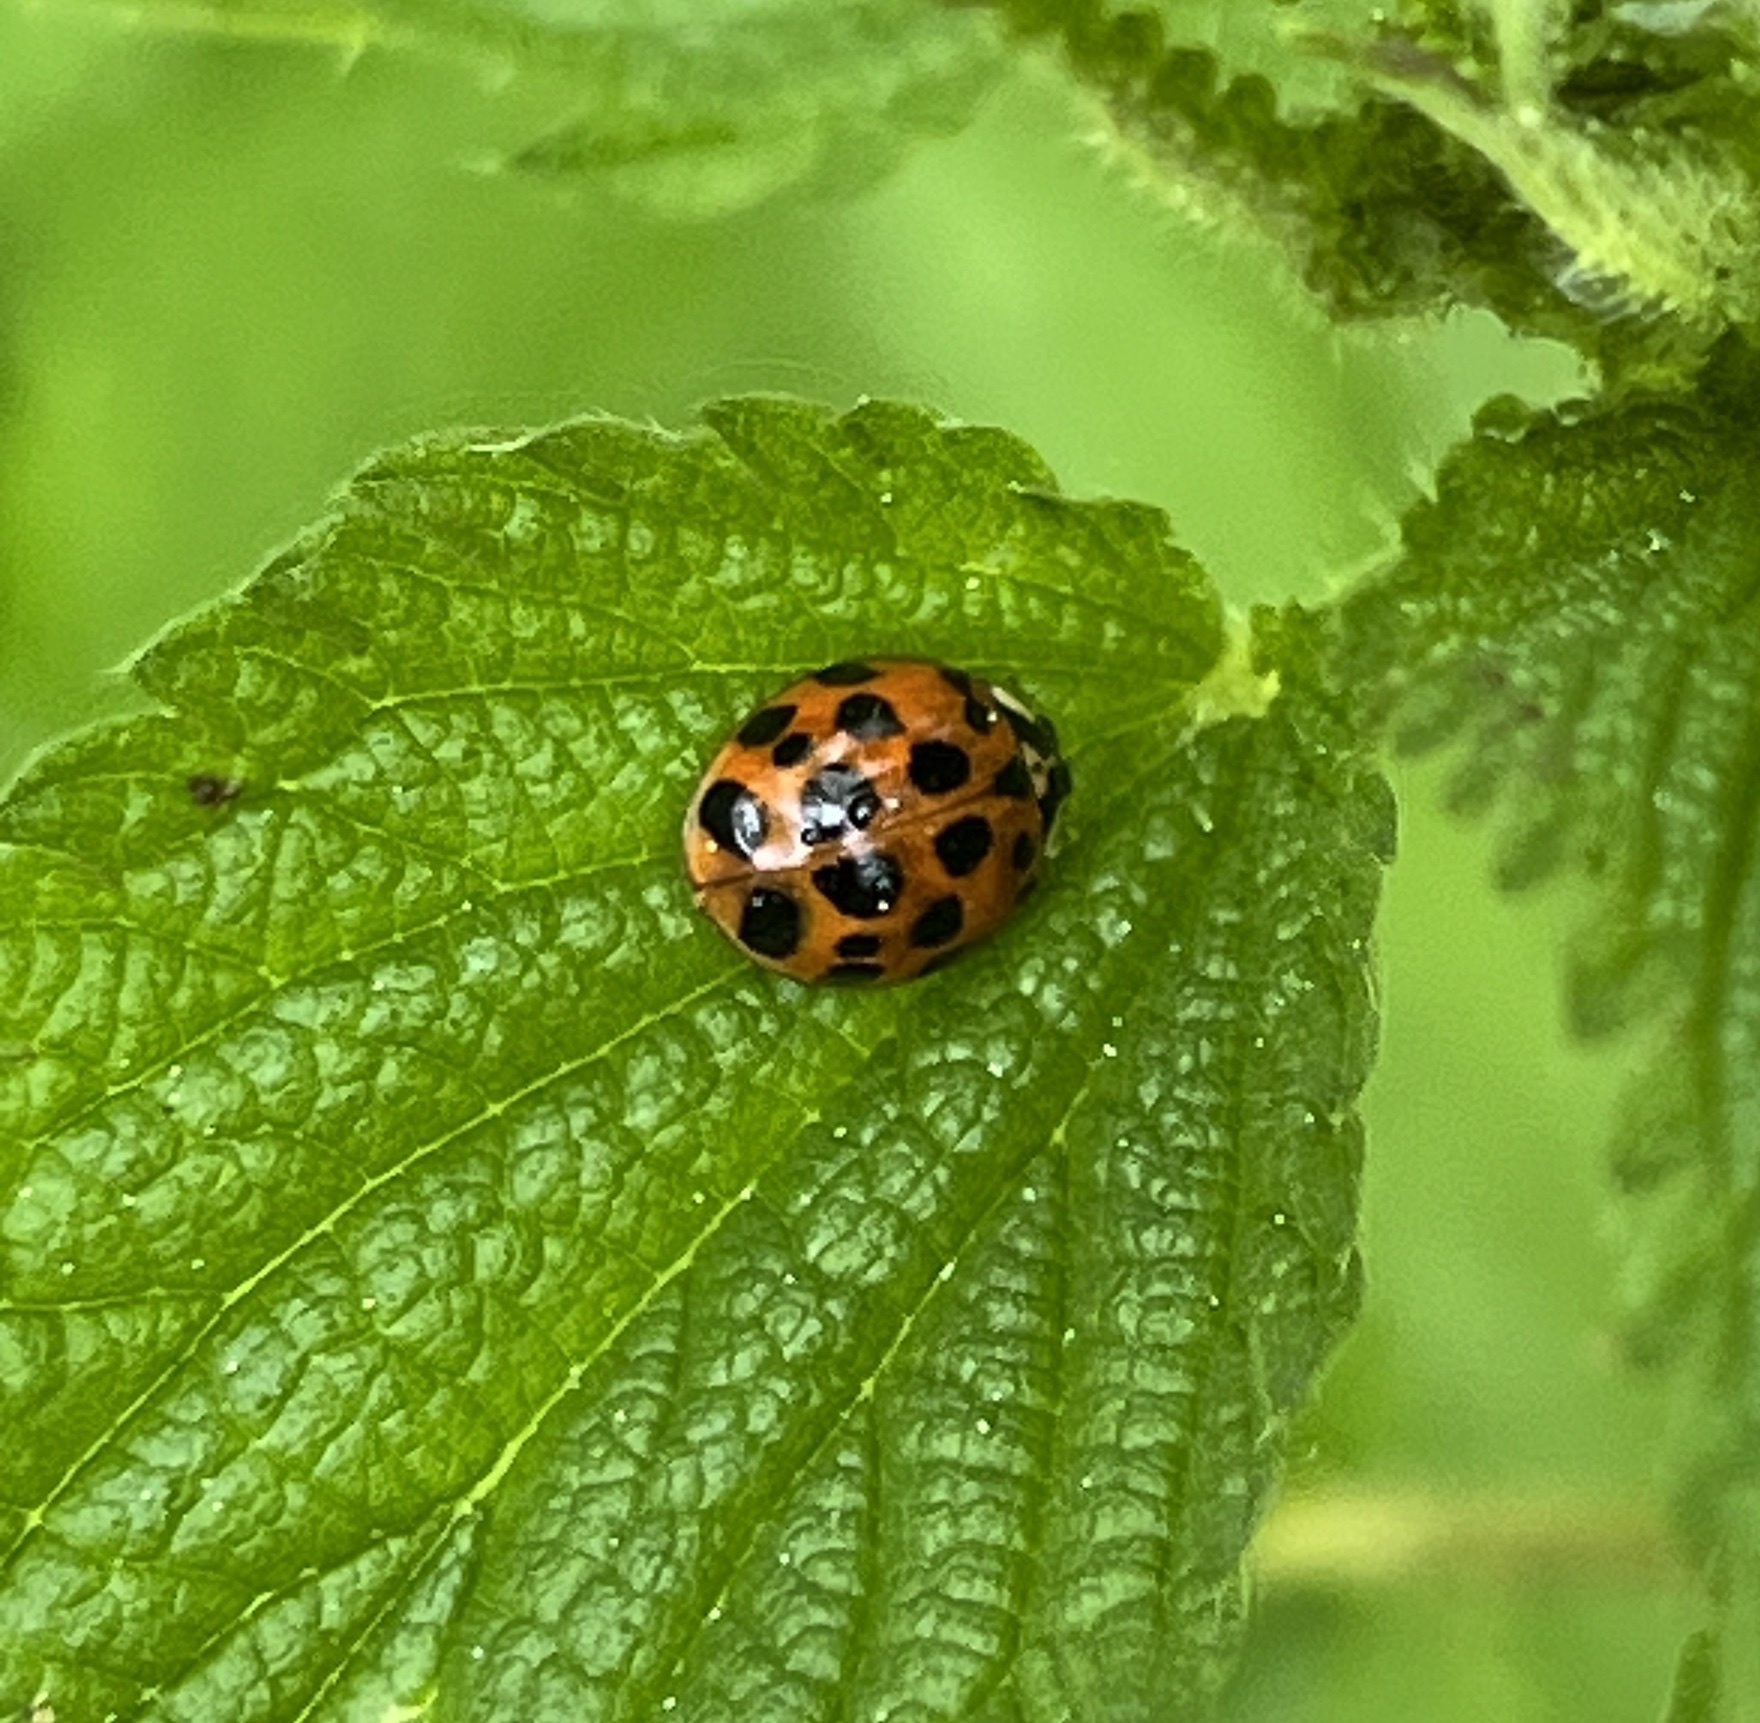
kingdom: Animalia
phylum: Arthropoda
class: Insecta
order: Coleoptera
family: Coccinellidae
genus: Harmonia
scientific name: Harmonia axyridis
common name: Harlequin ladybird
